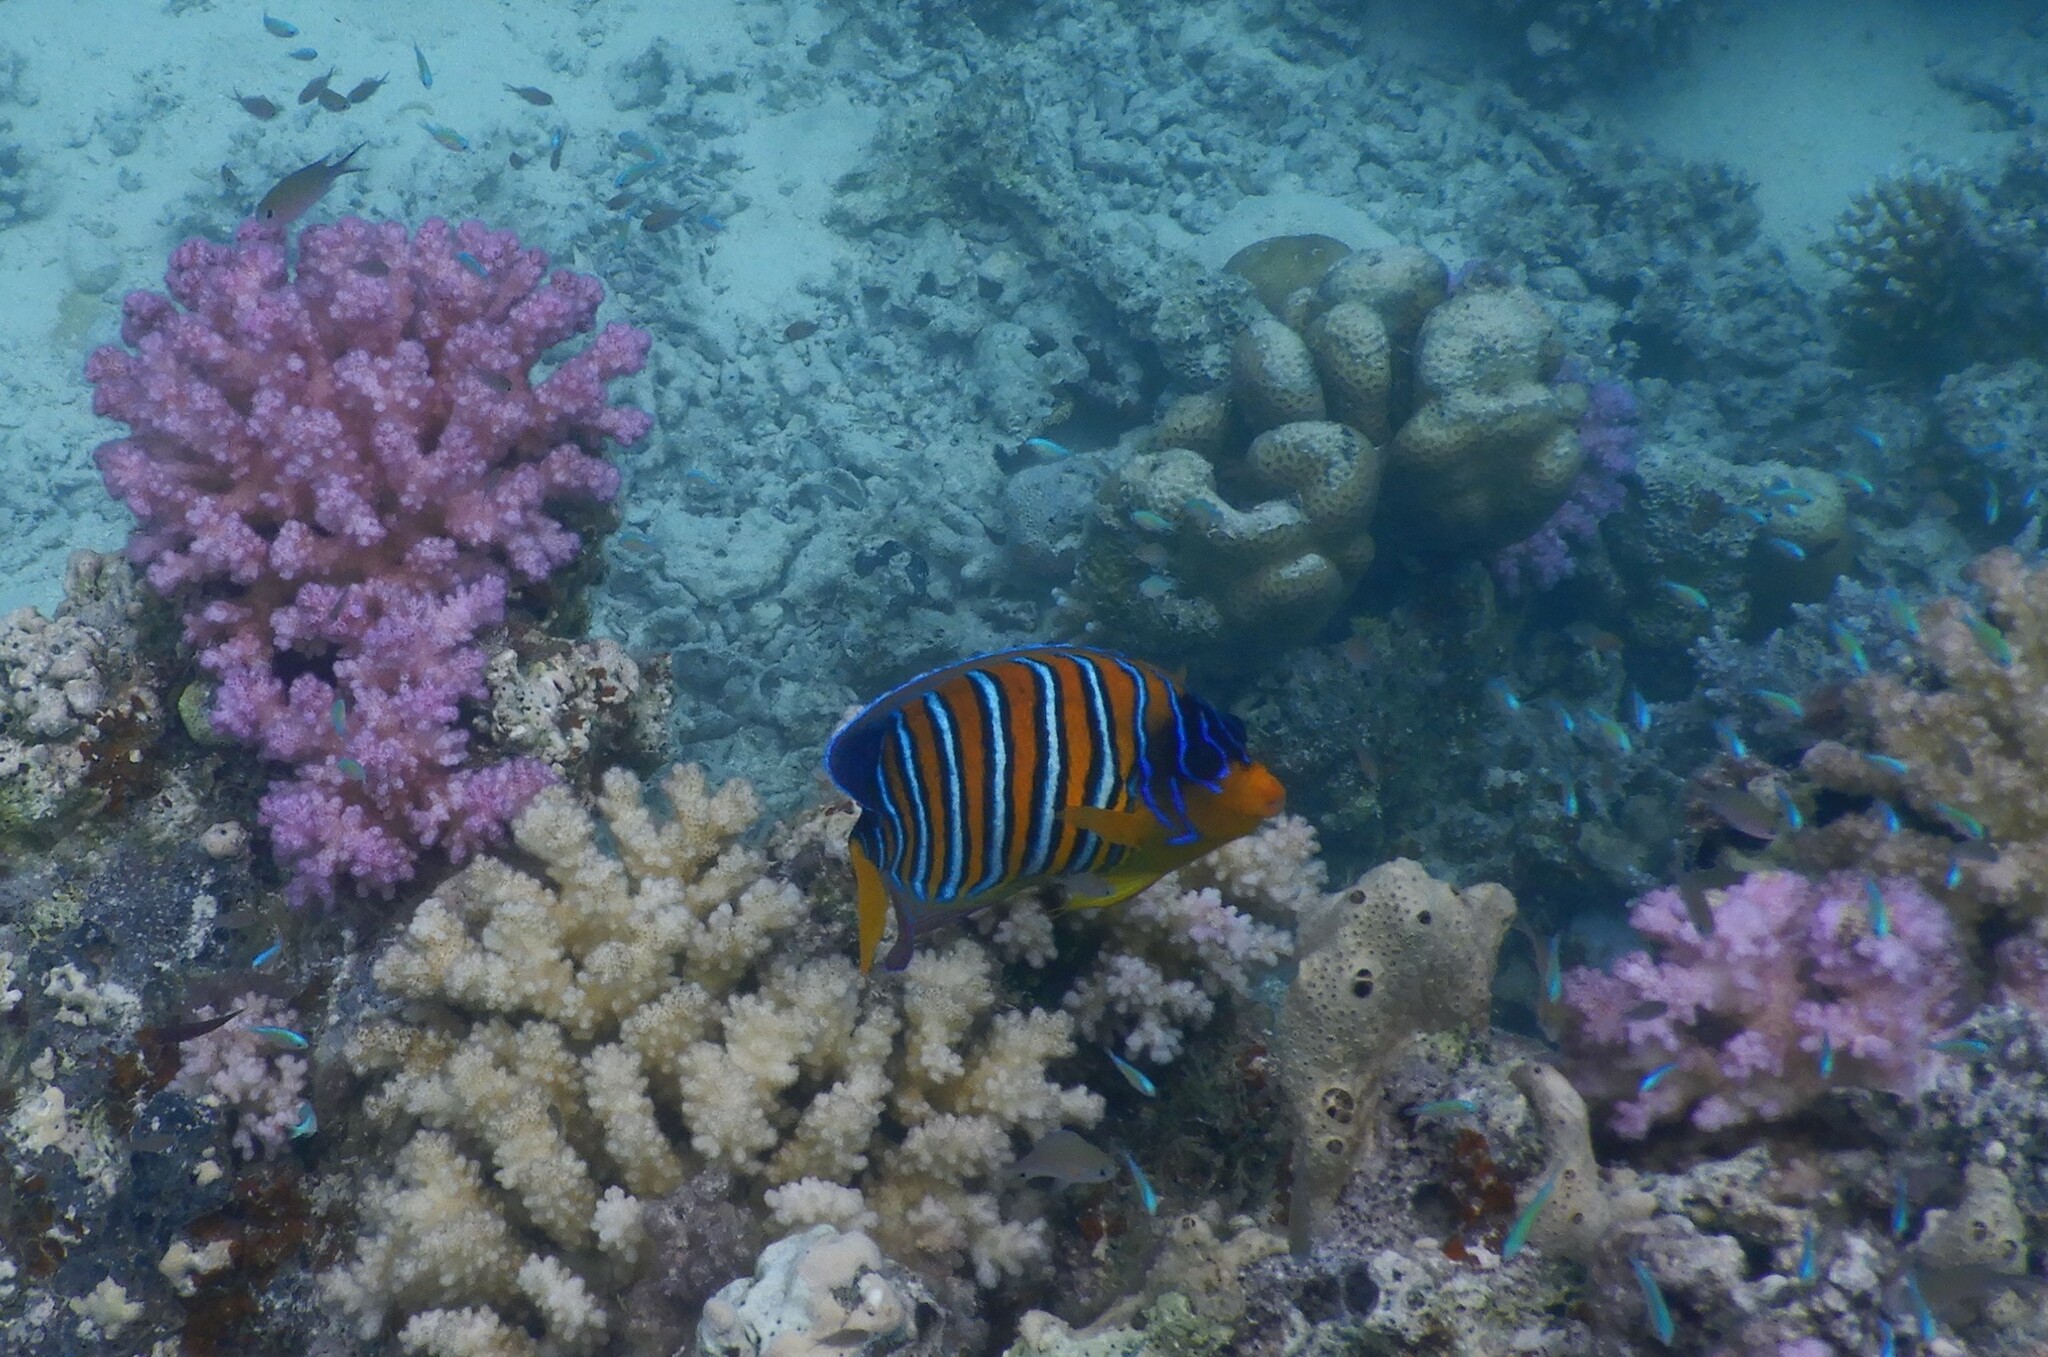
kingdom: Animalia
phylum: Chordata
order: Perciformes
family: Pomacanthidae
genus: Pygoplites
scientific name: Pygoplites diacanthus
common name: Regal angelfish
